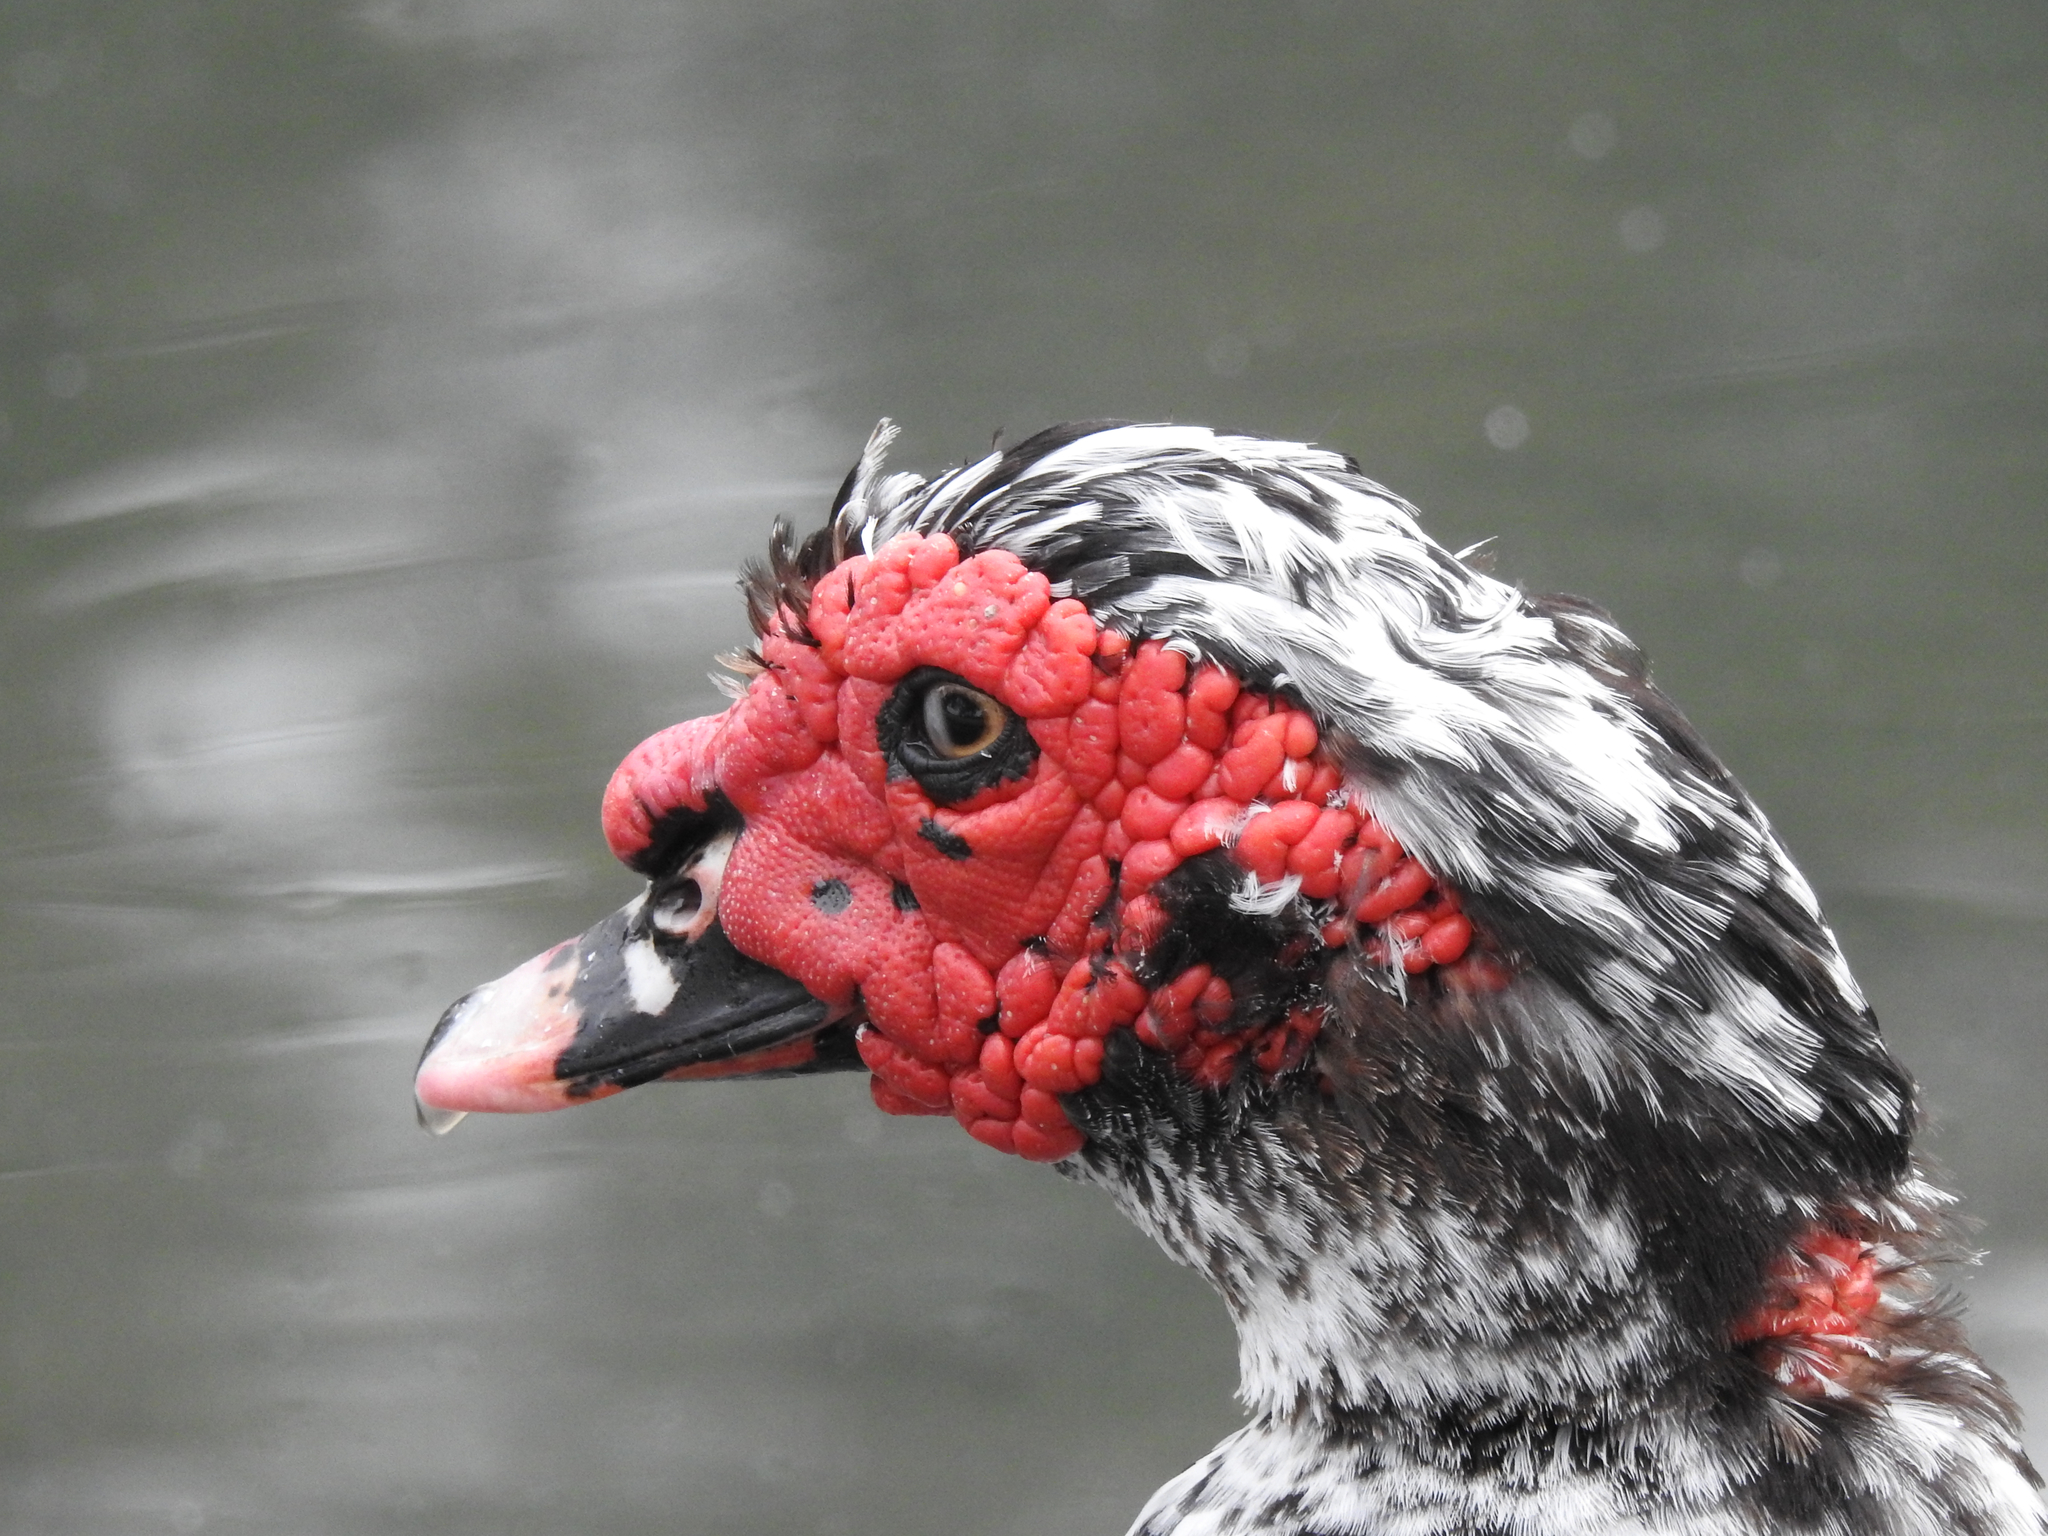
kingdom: Animalia
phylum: Chordata
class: Aves
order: Anseriformes
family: Anatidae
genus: Cairina
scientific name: Cairina moschata
